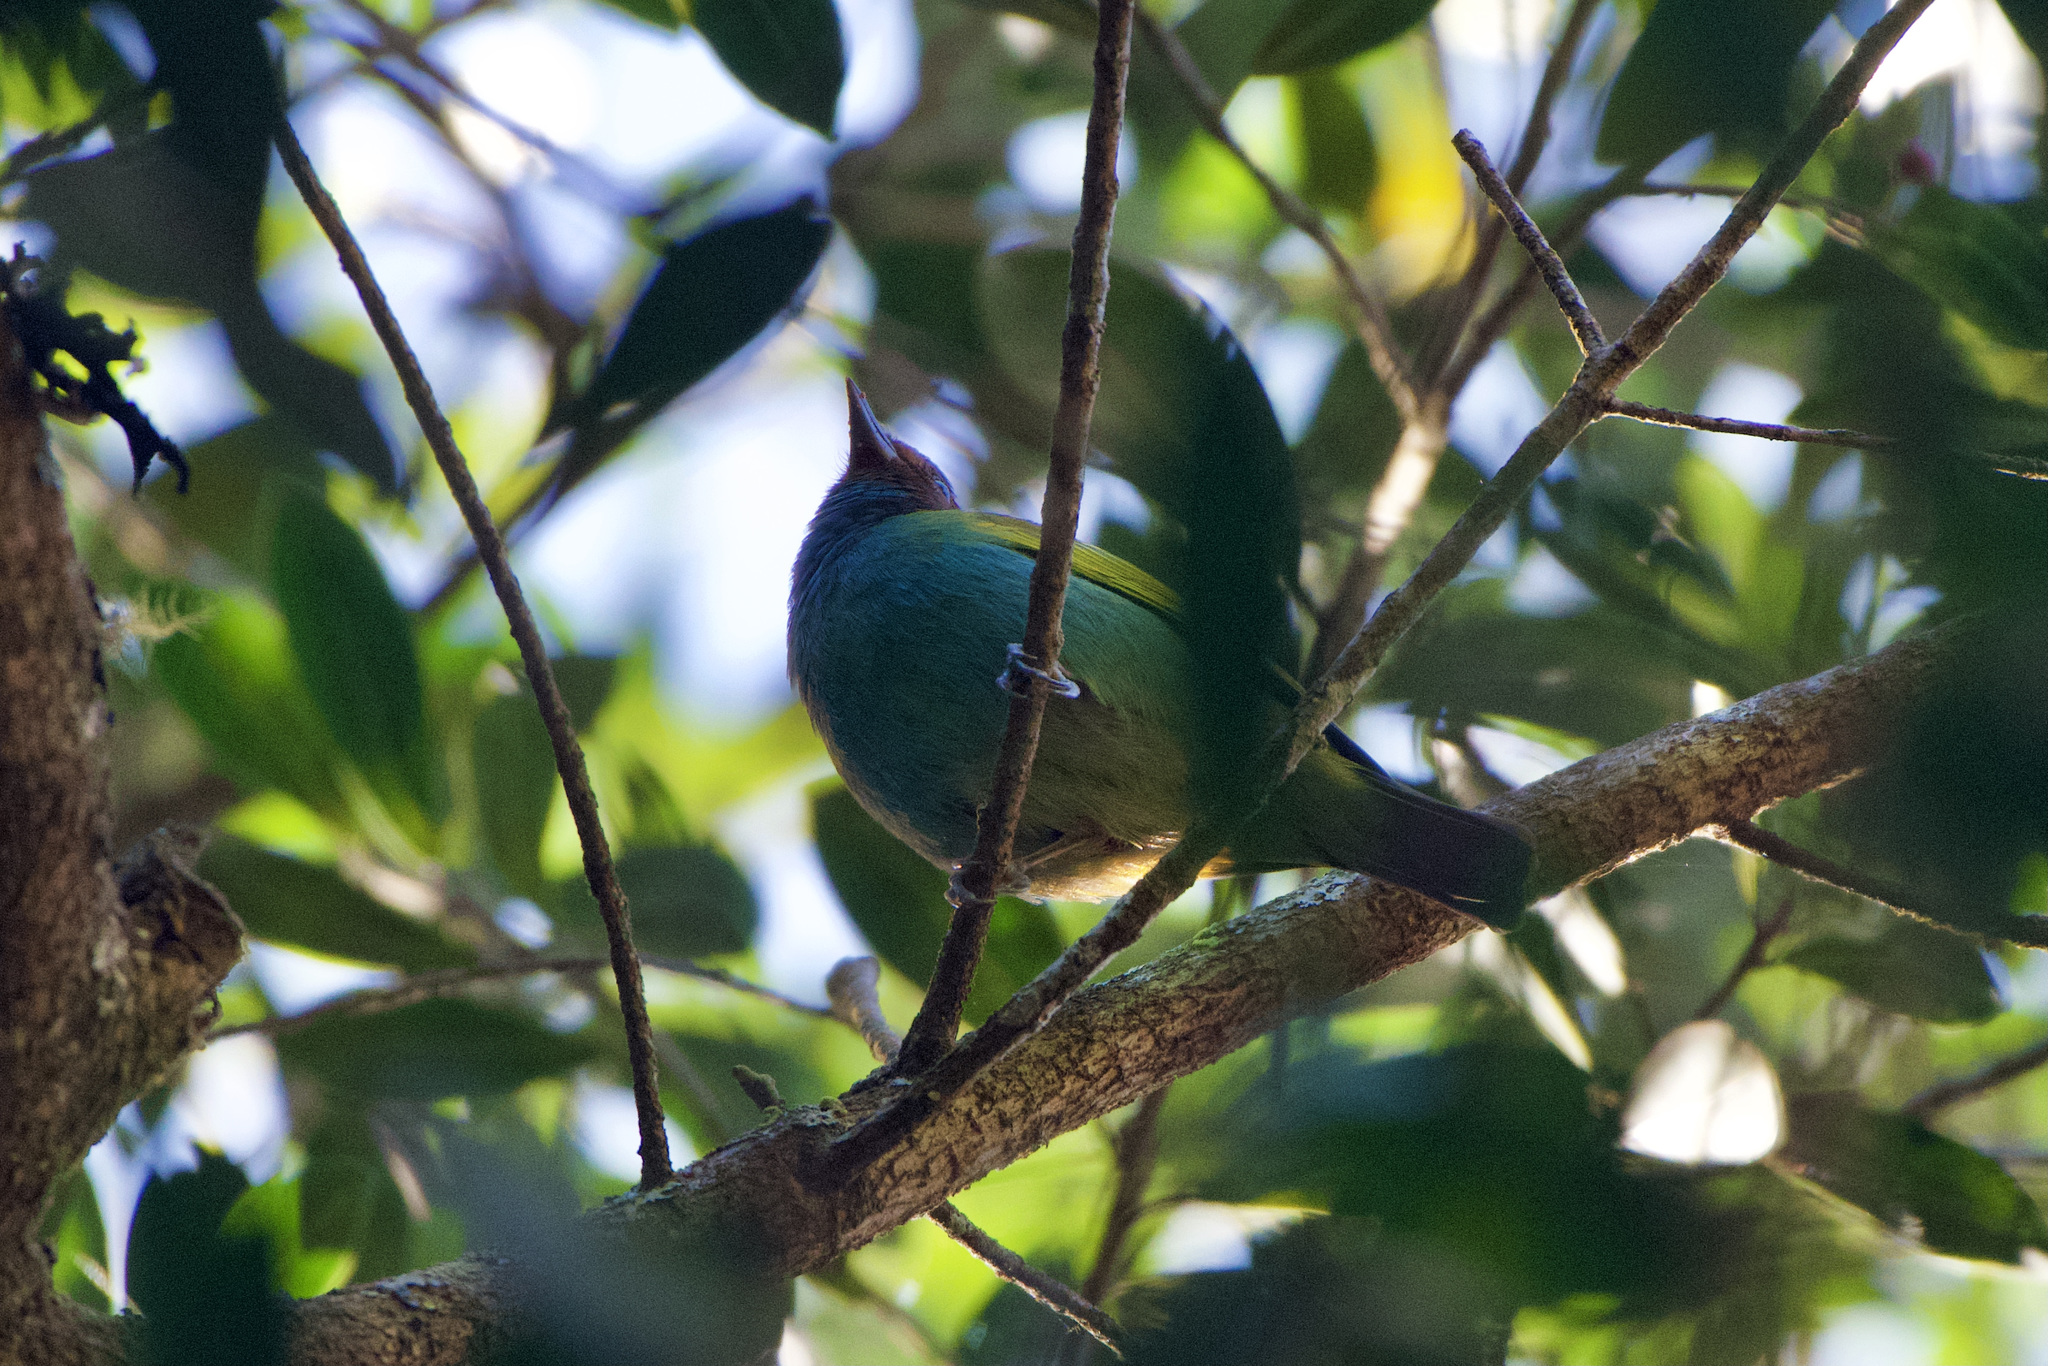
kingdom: Animalia
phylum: Chordata
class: Aves
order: Passeriformes
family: Thraupidae
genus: Tangara
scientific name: Tangara gyrola
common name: Bay-headed tanager
